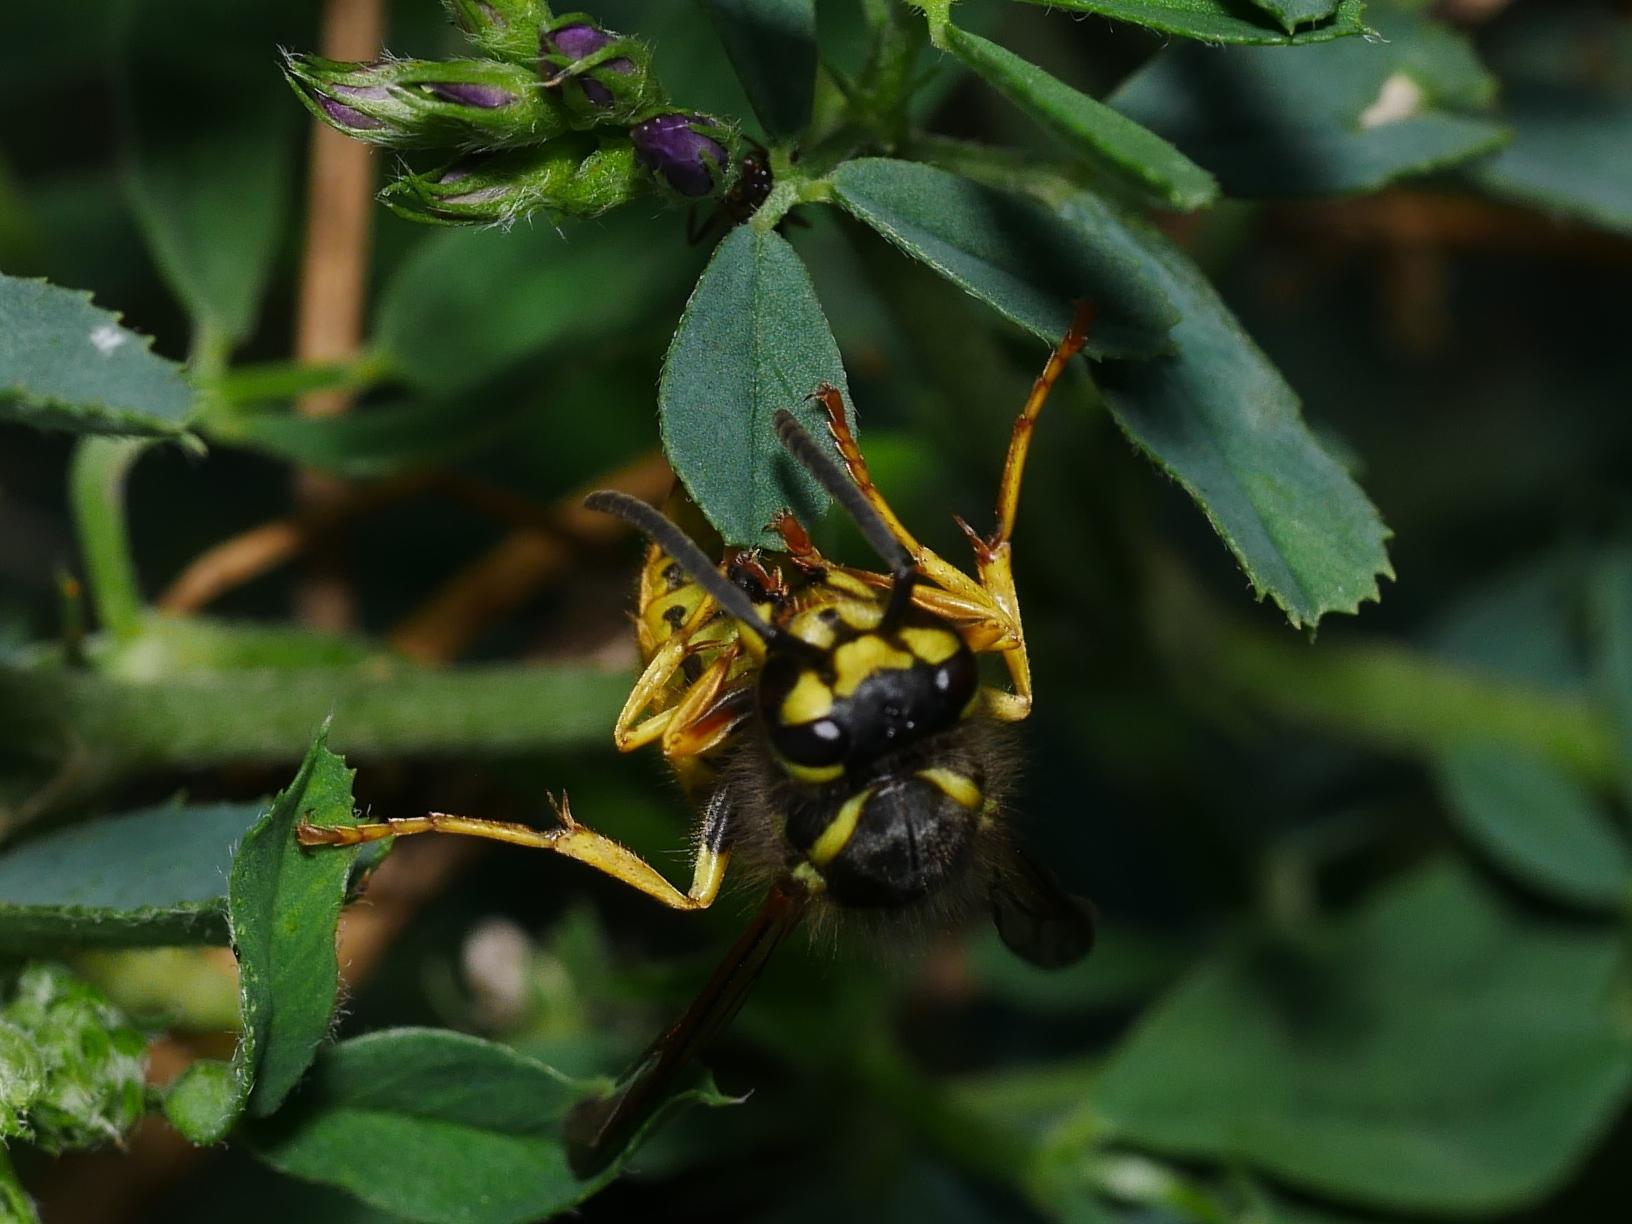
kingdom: Animalia
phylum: Arthropoda
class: Insecta
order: Hymenoptera
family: Vespidae
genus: Vespula
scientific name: Vespula germanica
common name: German wasp
